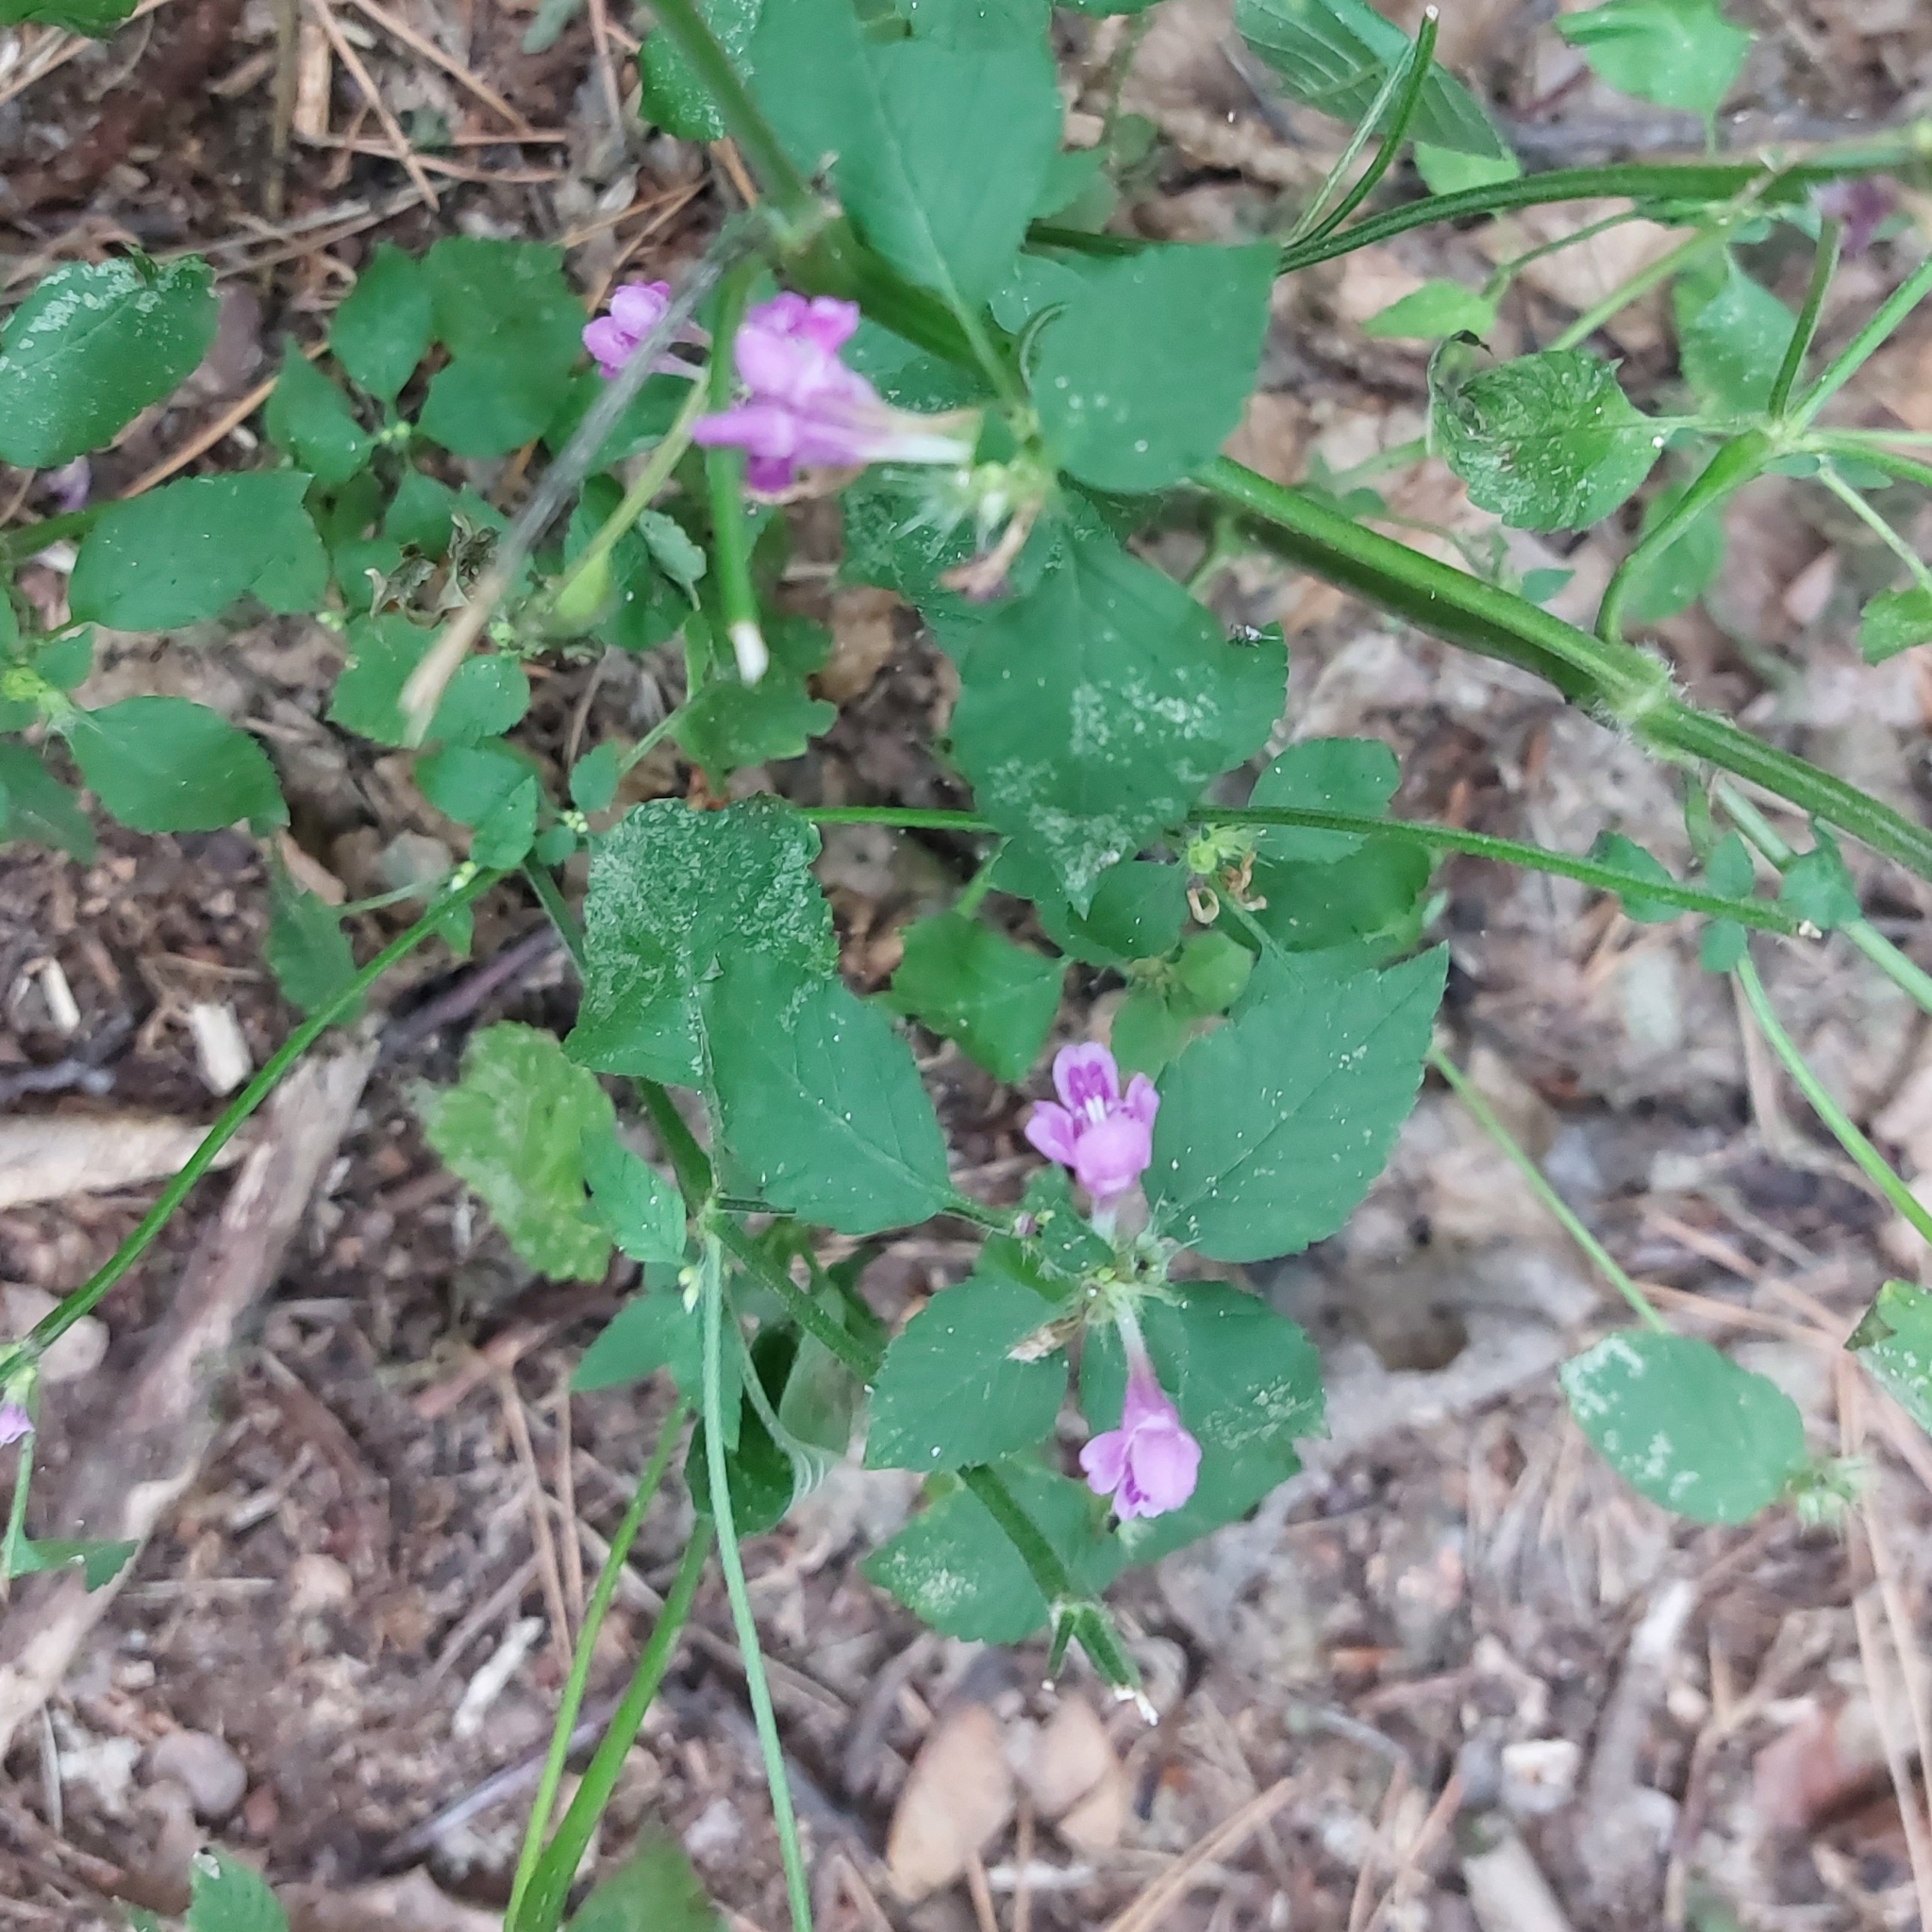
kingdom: Plantae
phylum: Tracheophyta
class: Magnoliopsida
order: Lamiales
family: Lamiaceae
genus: Galeopsis
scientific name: Galeopsis pubescens
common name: Downy hemp-nettle
